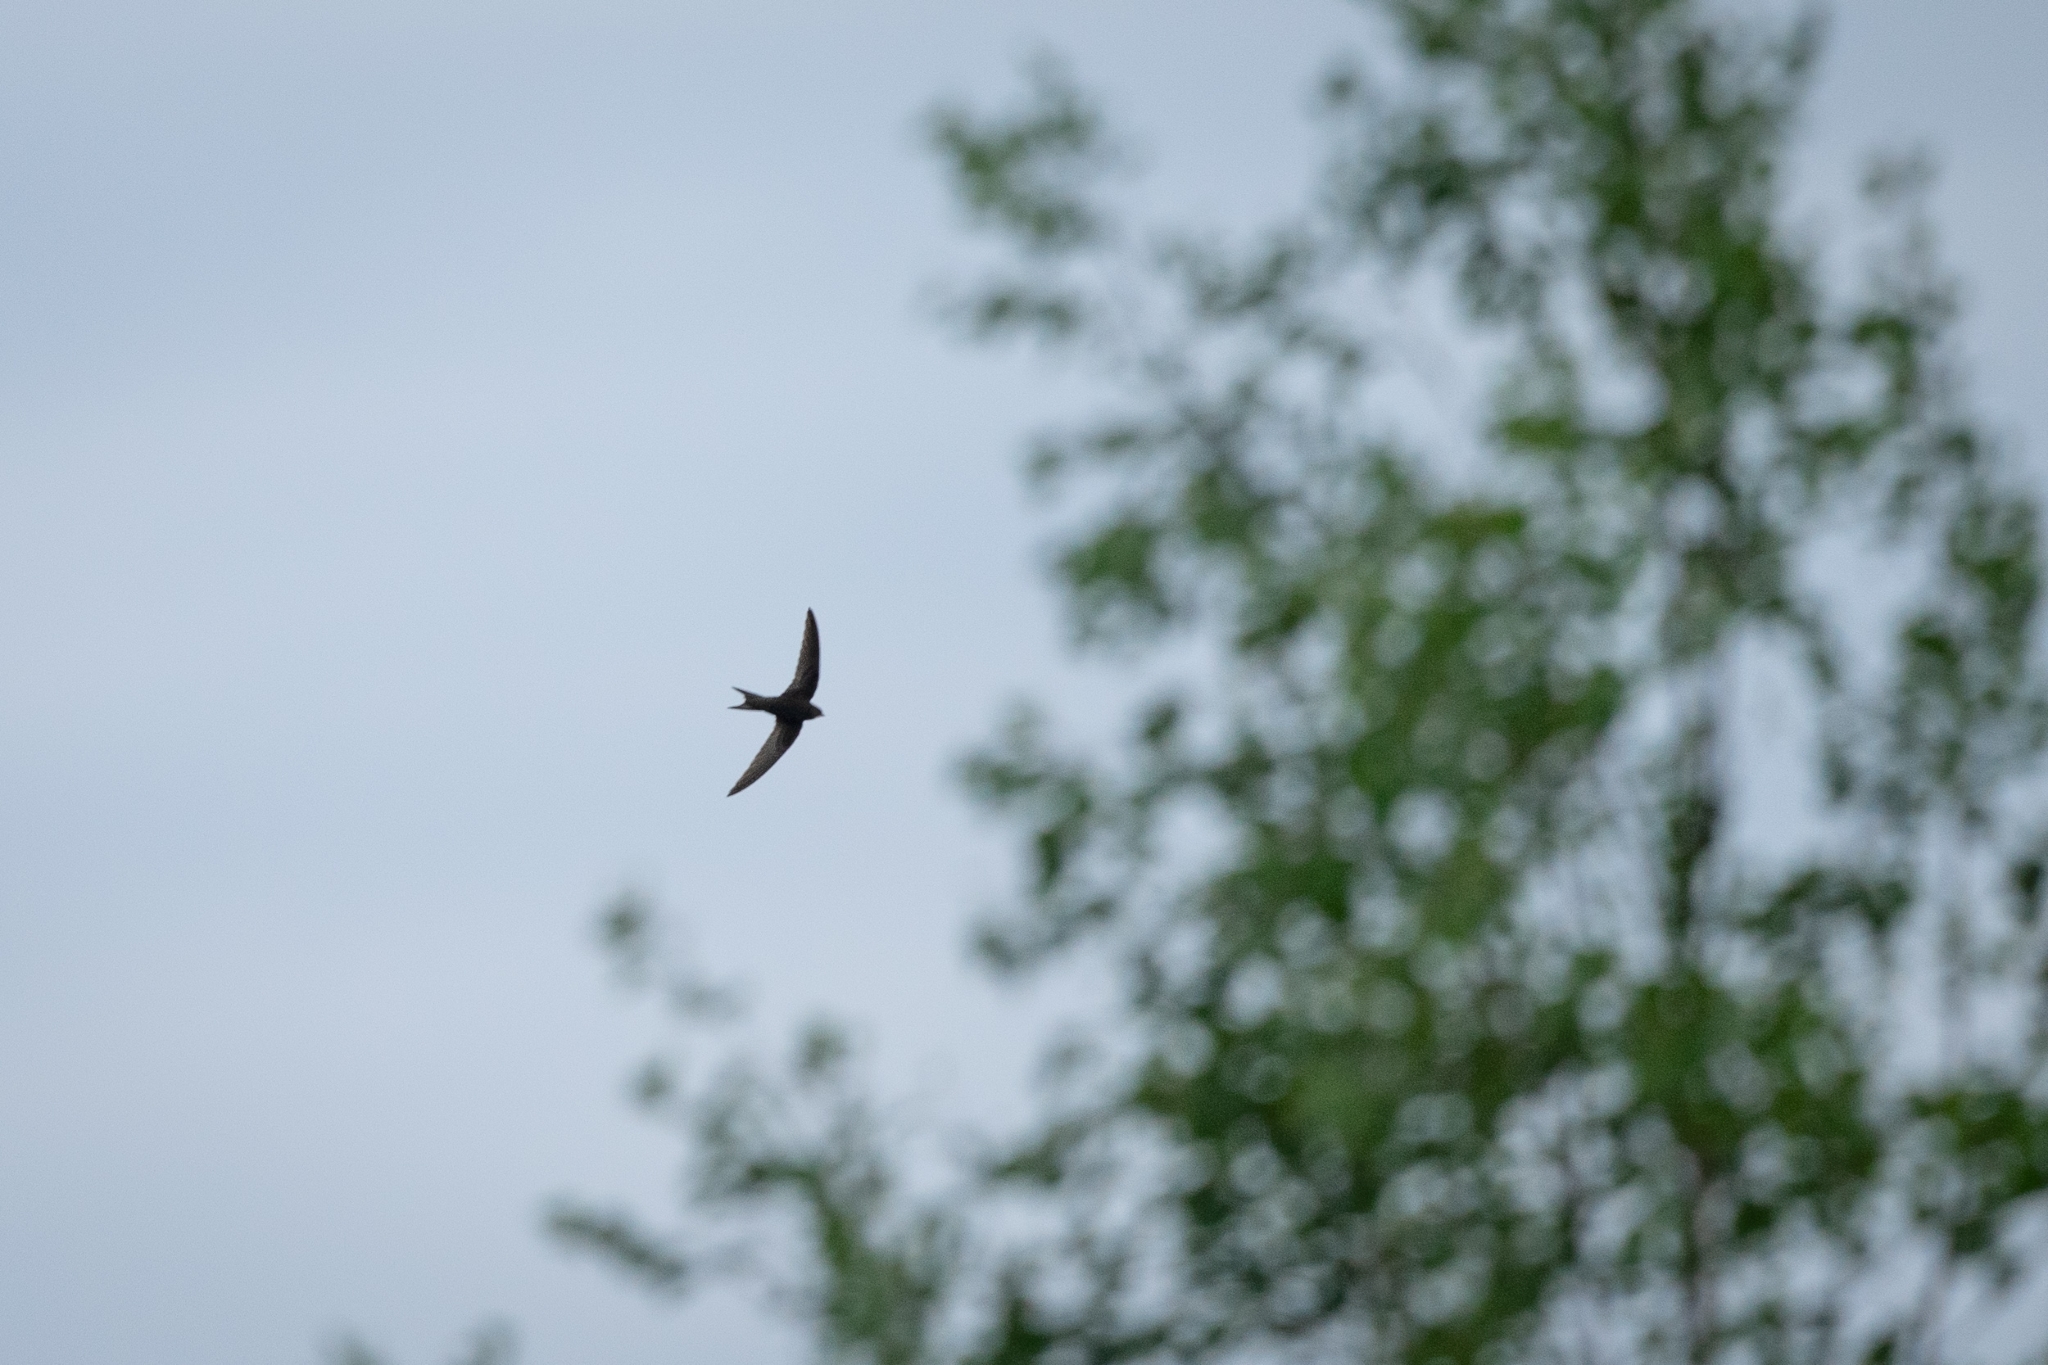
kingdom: Animalia
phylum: Chordata
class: Aves
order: Apodiformes
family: Apodidae
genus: Apus
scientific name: Apus apus
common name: Common swift
